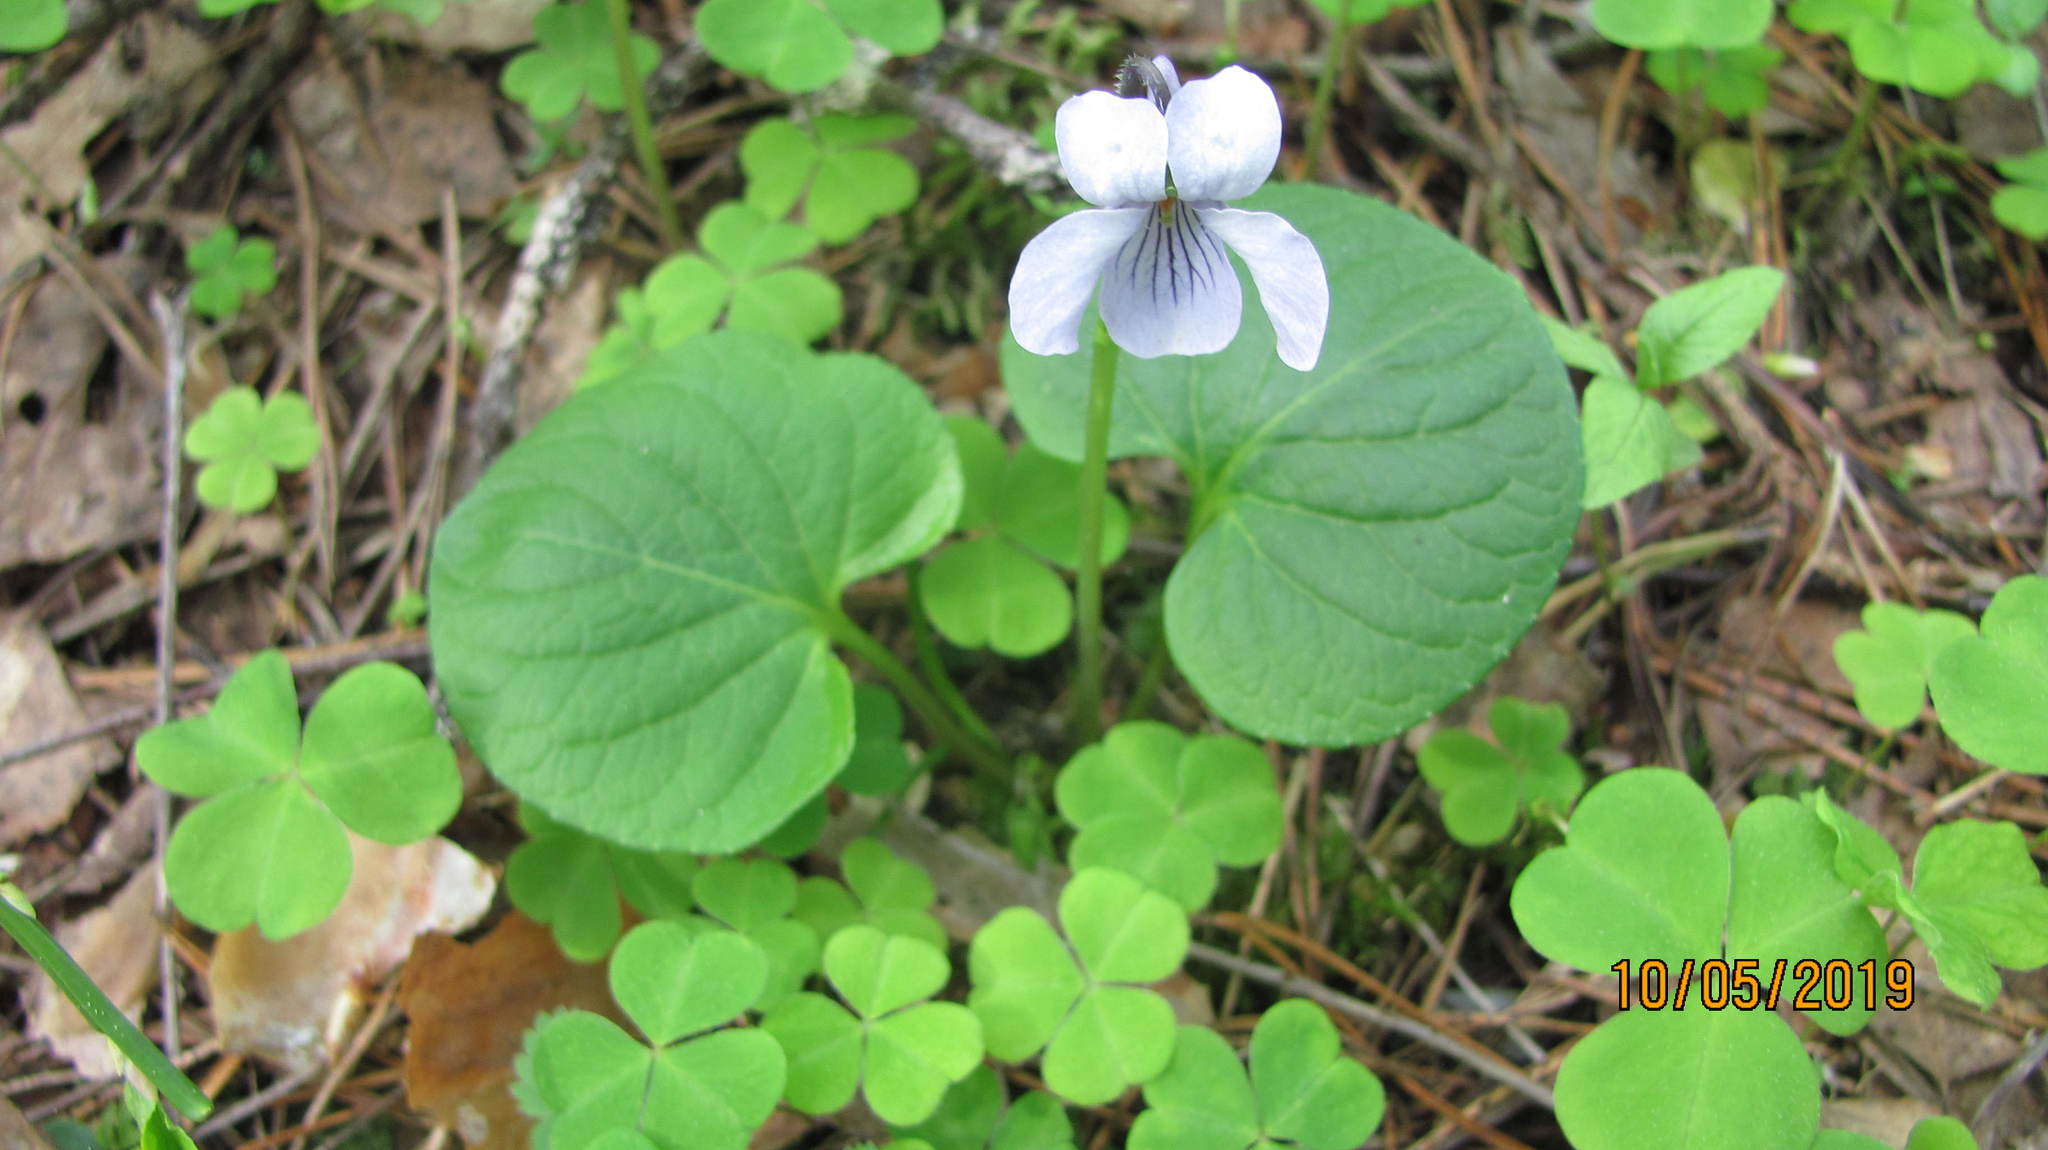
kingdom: Plantae
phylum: Tracheophyta
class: Magnoliopsida
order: Malpighiales
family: Violaceae
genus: Viola
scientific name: Viola mirabilis
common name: Wonder violet
